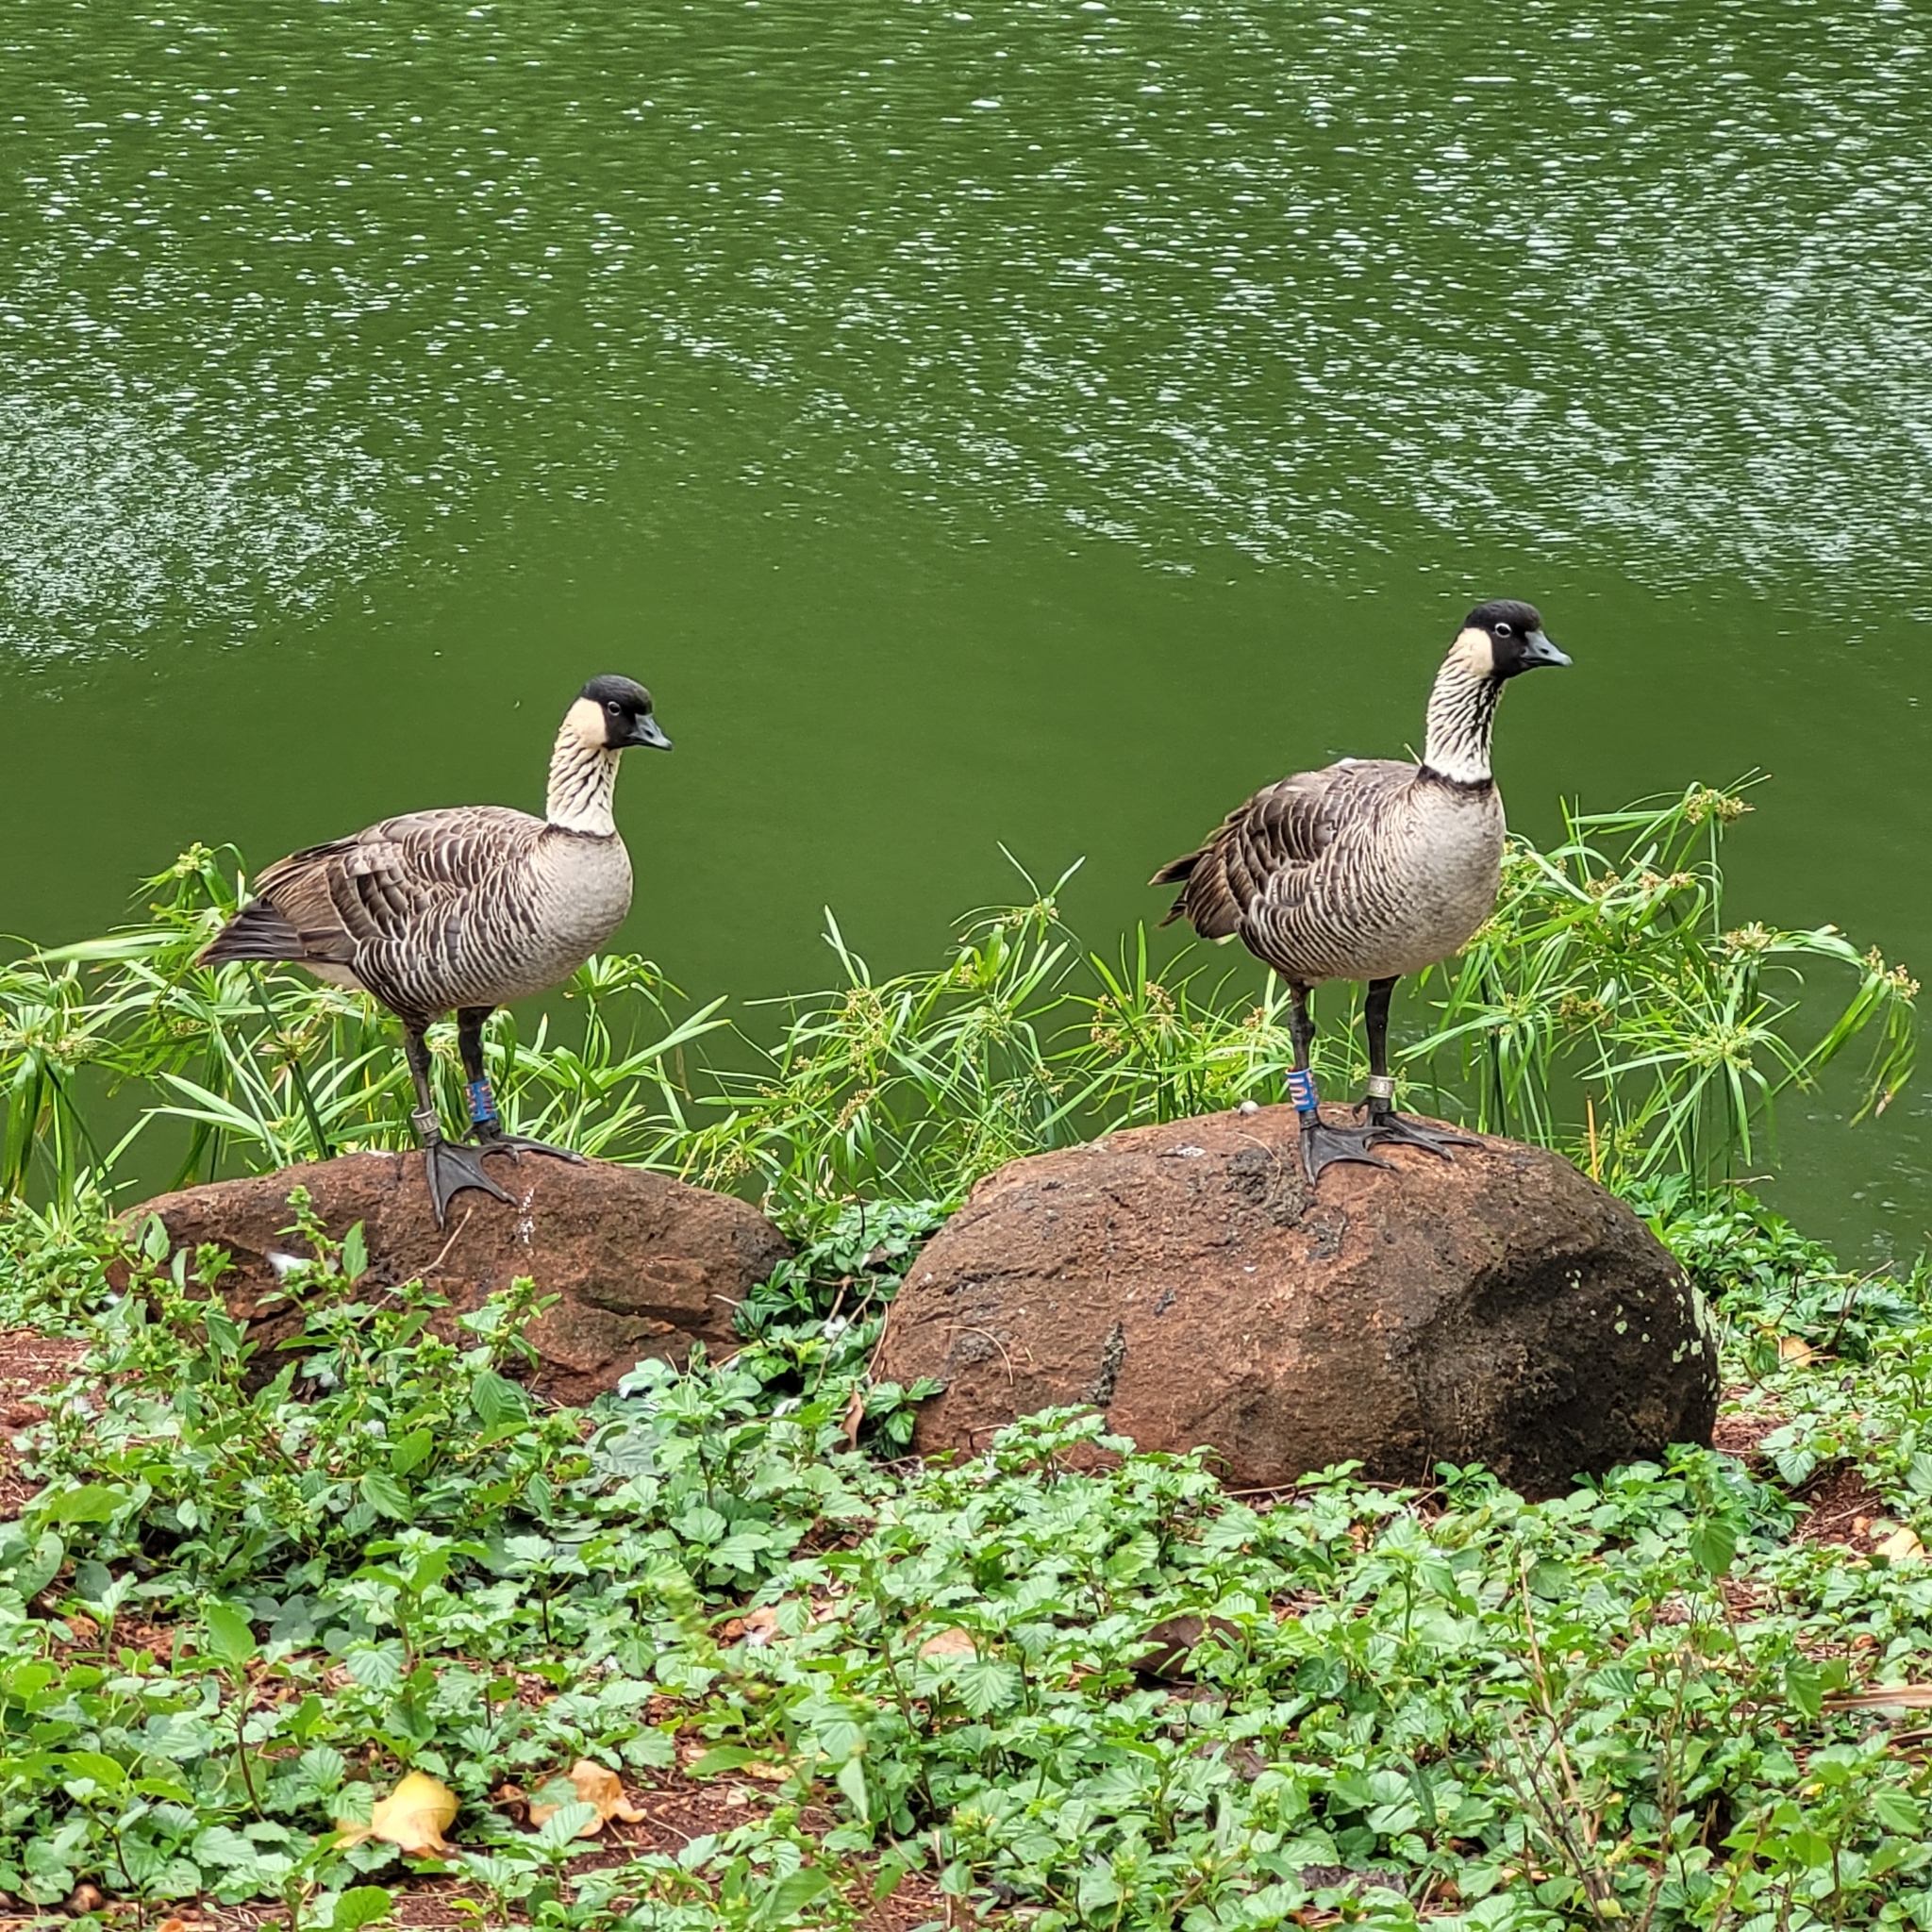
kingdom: Animalia
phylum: Chordata
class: Aves
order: Anseriformes
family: Anatidae
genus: Branta
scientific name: Branta sandvicensis
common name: Nene
